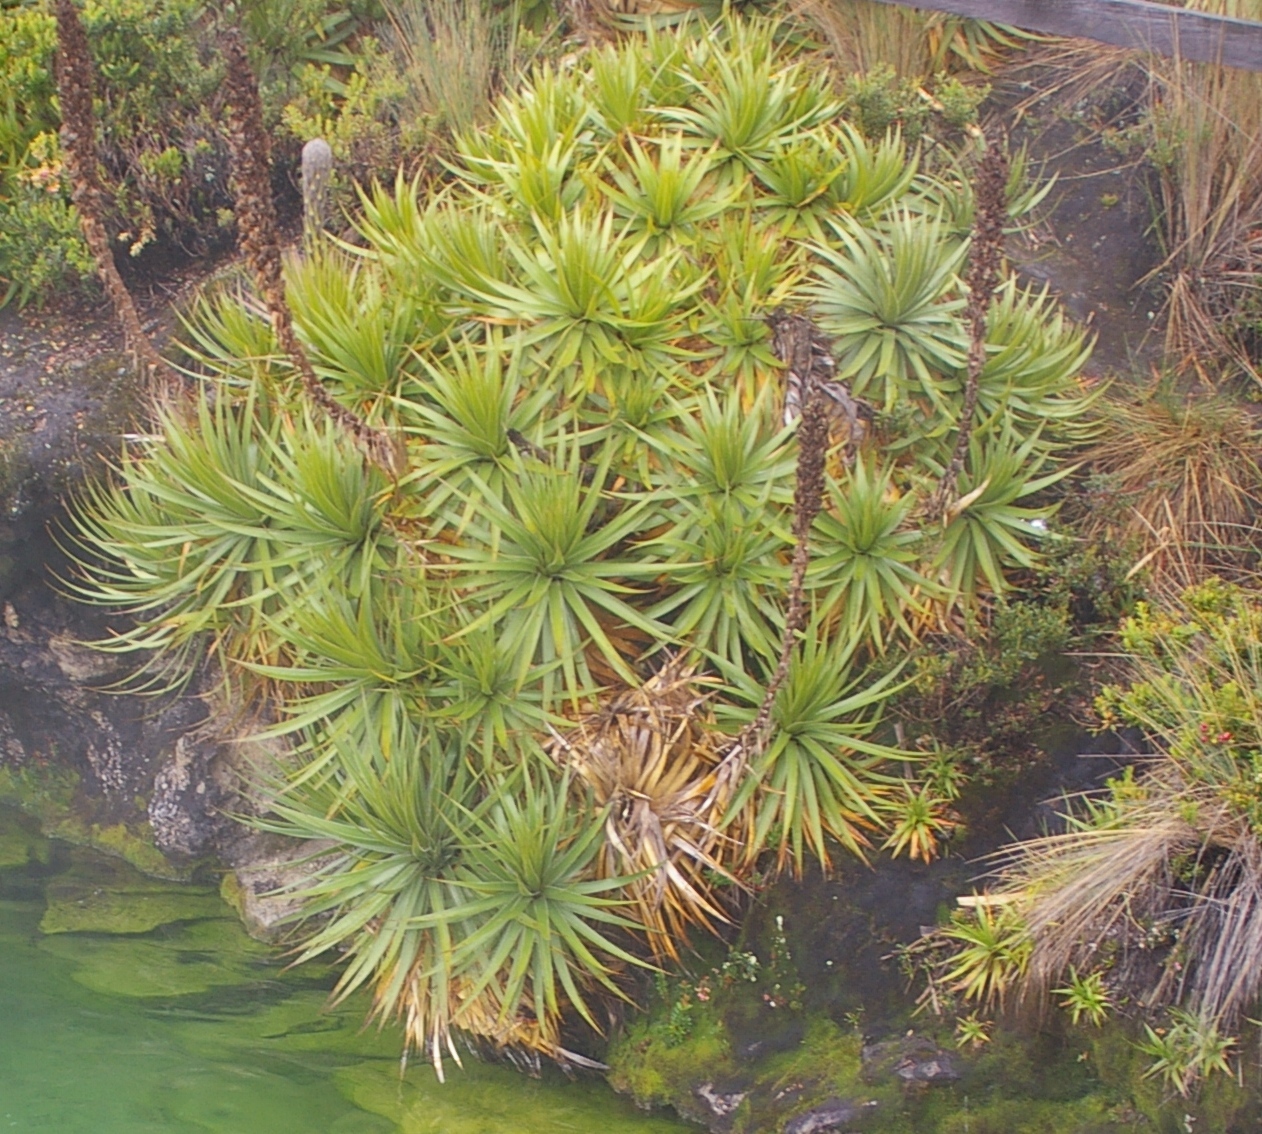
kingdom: Plantae
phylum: Tracheophyta
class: Liliopsida
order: Poales
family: Bromeliaceae
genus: Puya
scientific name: Puya ochroleuca
